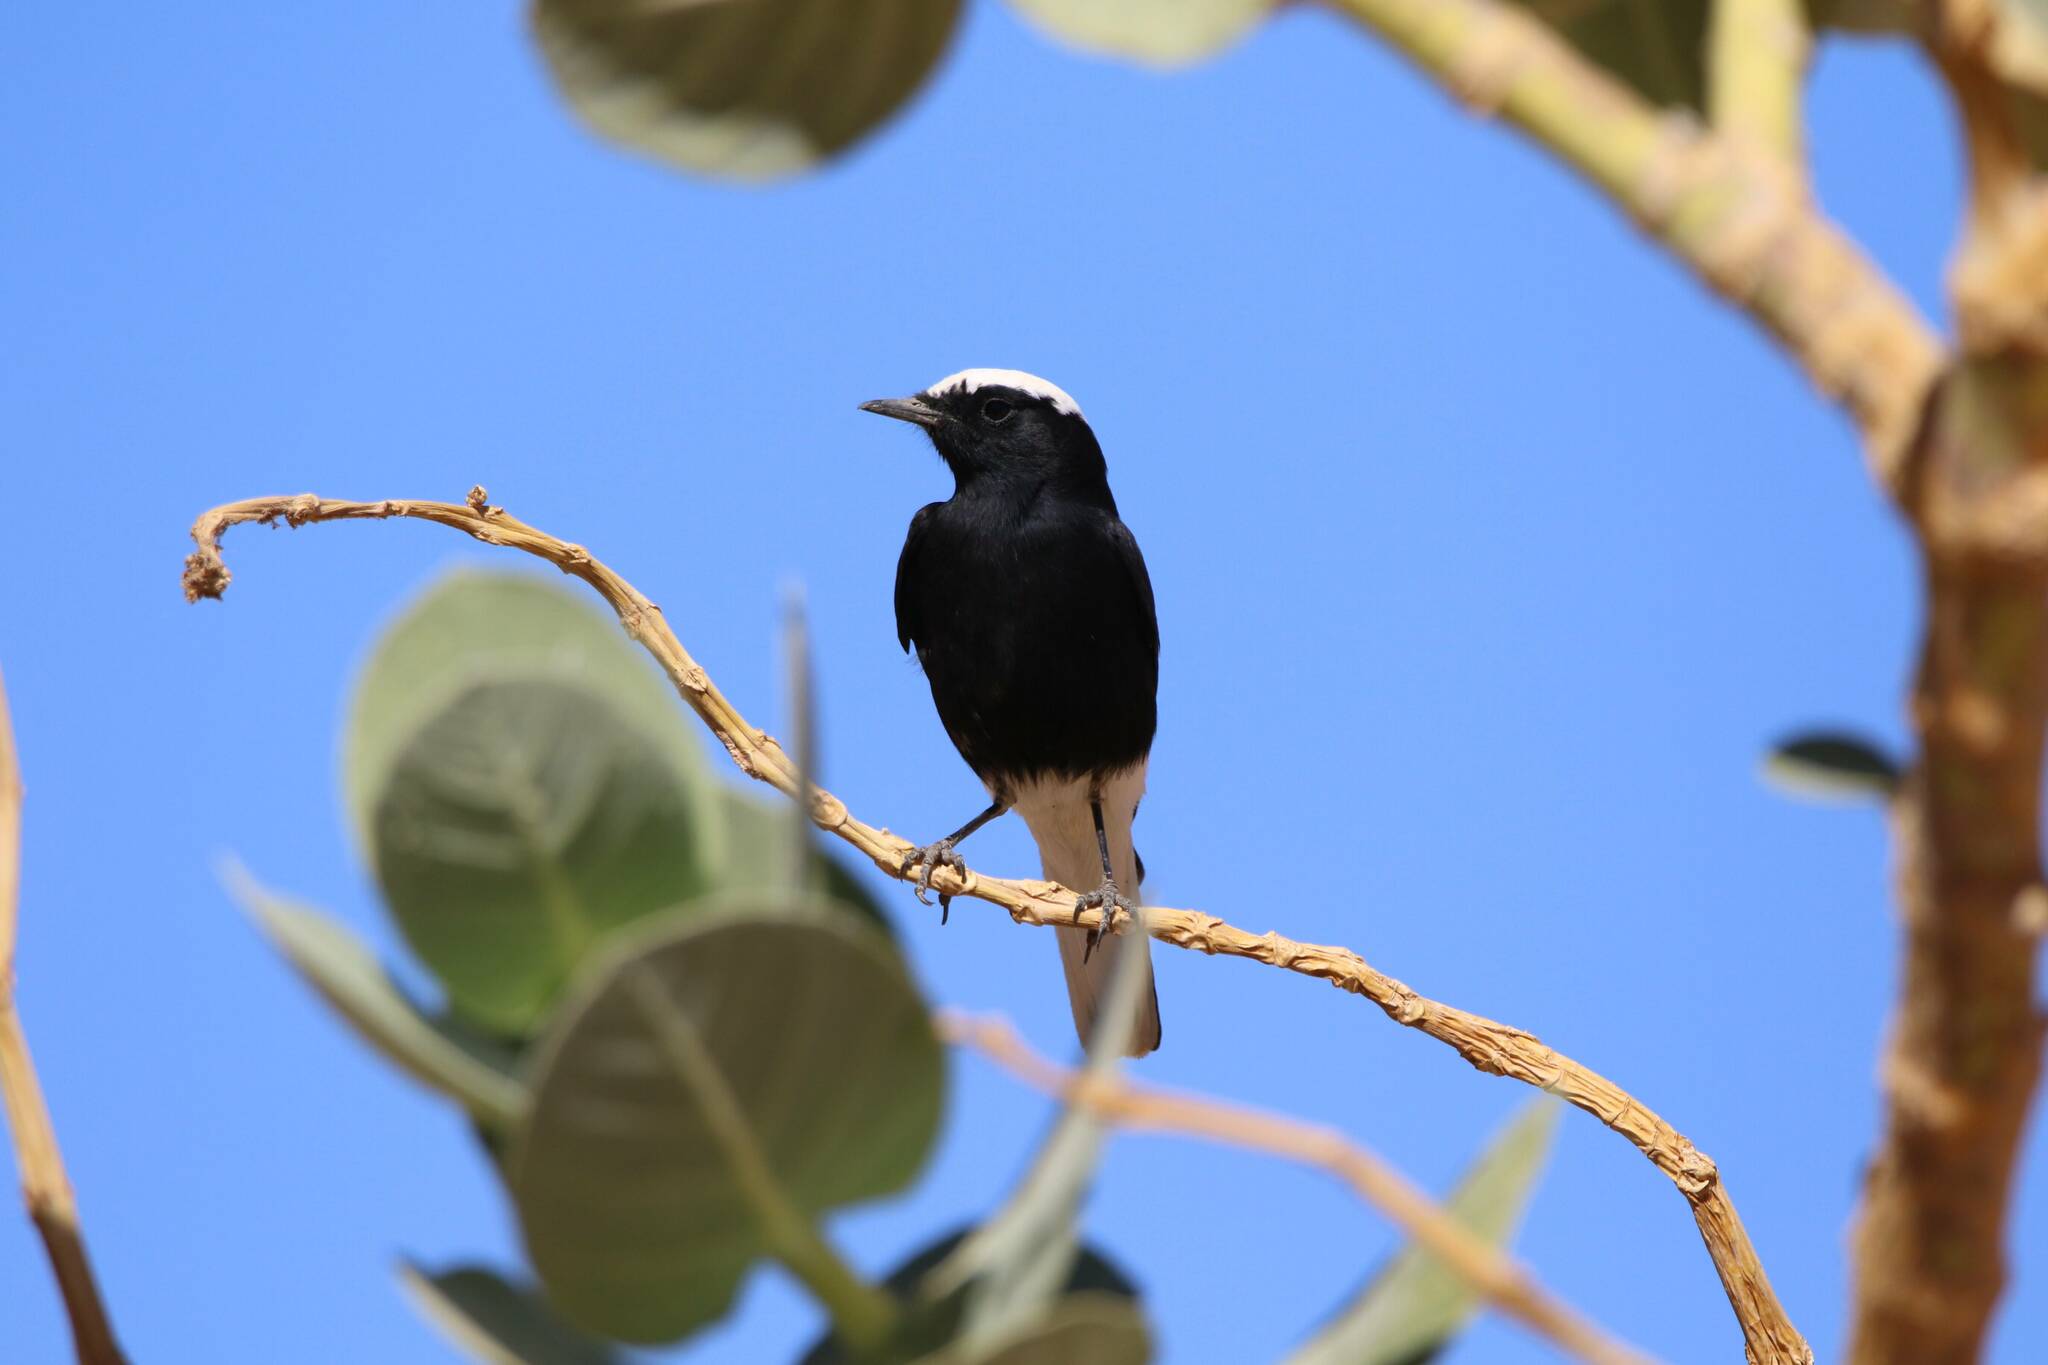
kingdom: Animalia
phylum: Chordata
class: Aves
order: Passeriformes
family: Muscicapidae
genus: Oenanthe
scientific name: Oenanthe leucopyga
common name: White-crowned wheatear
